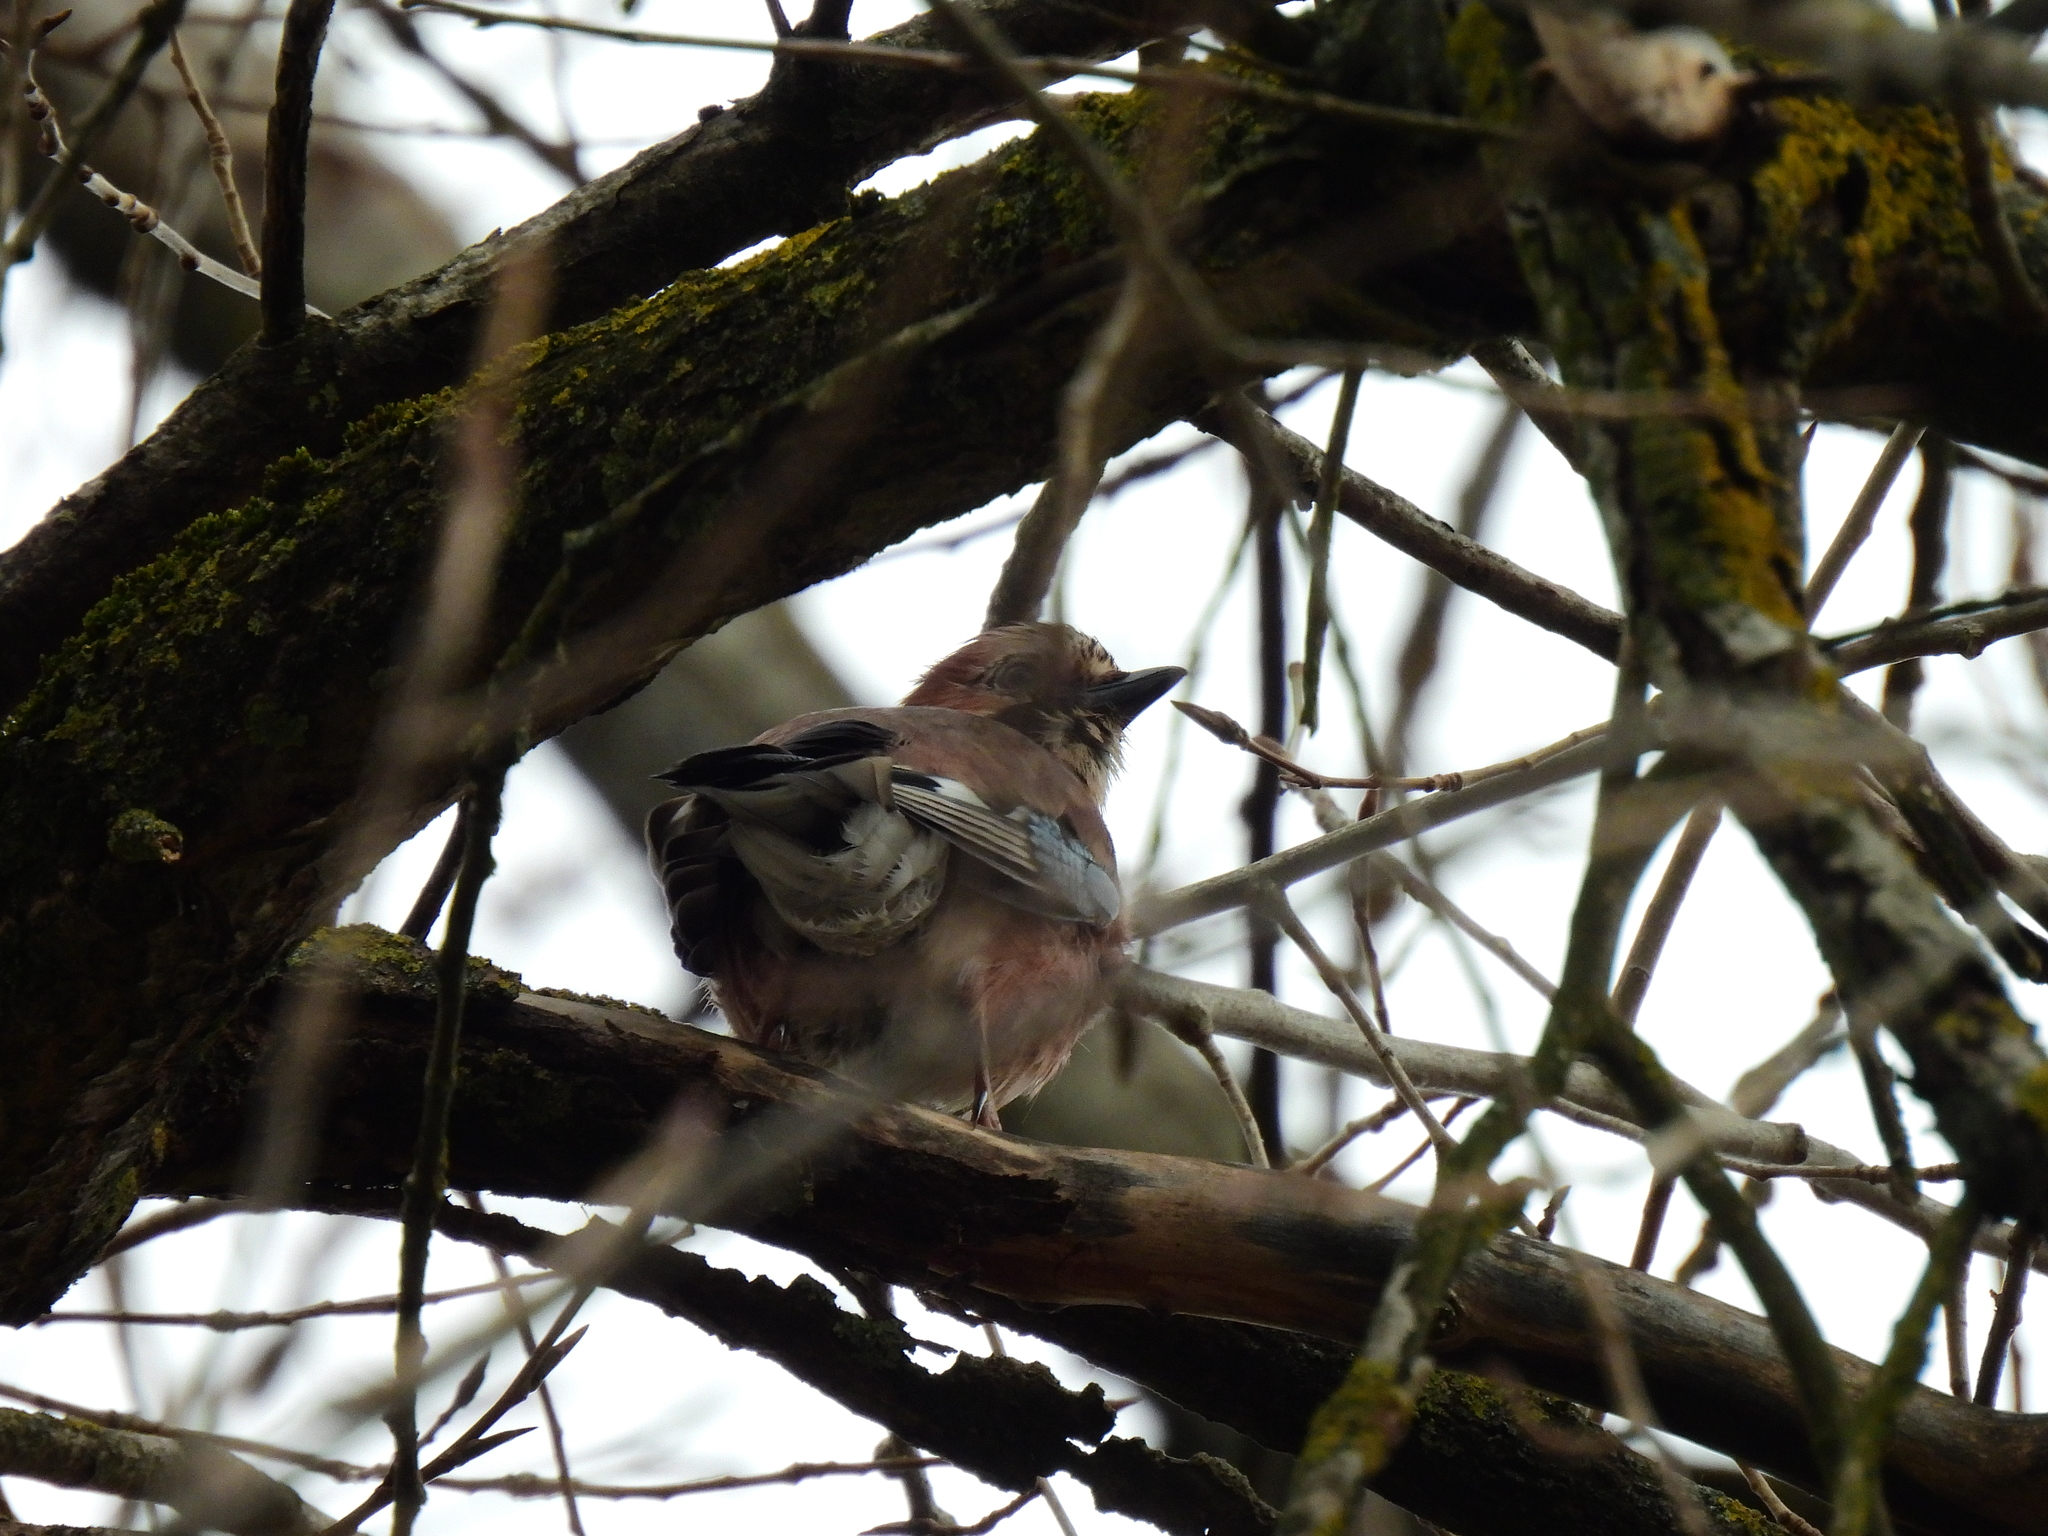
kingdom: Animalia
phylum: Chordata
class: Aves
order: Passeriformes
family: Corvidae
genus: Garrulus
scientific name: Garrulus glandarius
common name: Eurasian jay
